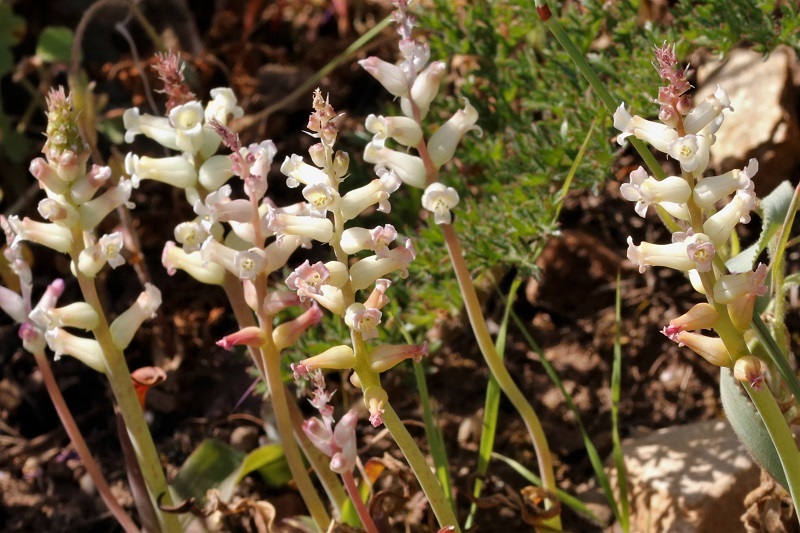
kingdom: Plantae
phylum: Tracheophyta
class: Liliopsida
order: Asparagales
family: Asparagaceae
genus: Lachenalia
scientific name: Lachenalia fistulosa
